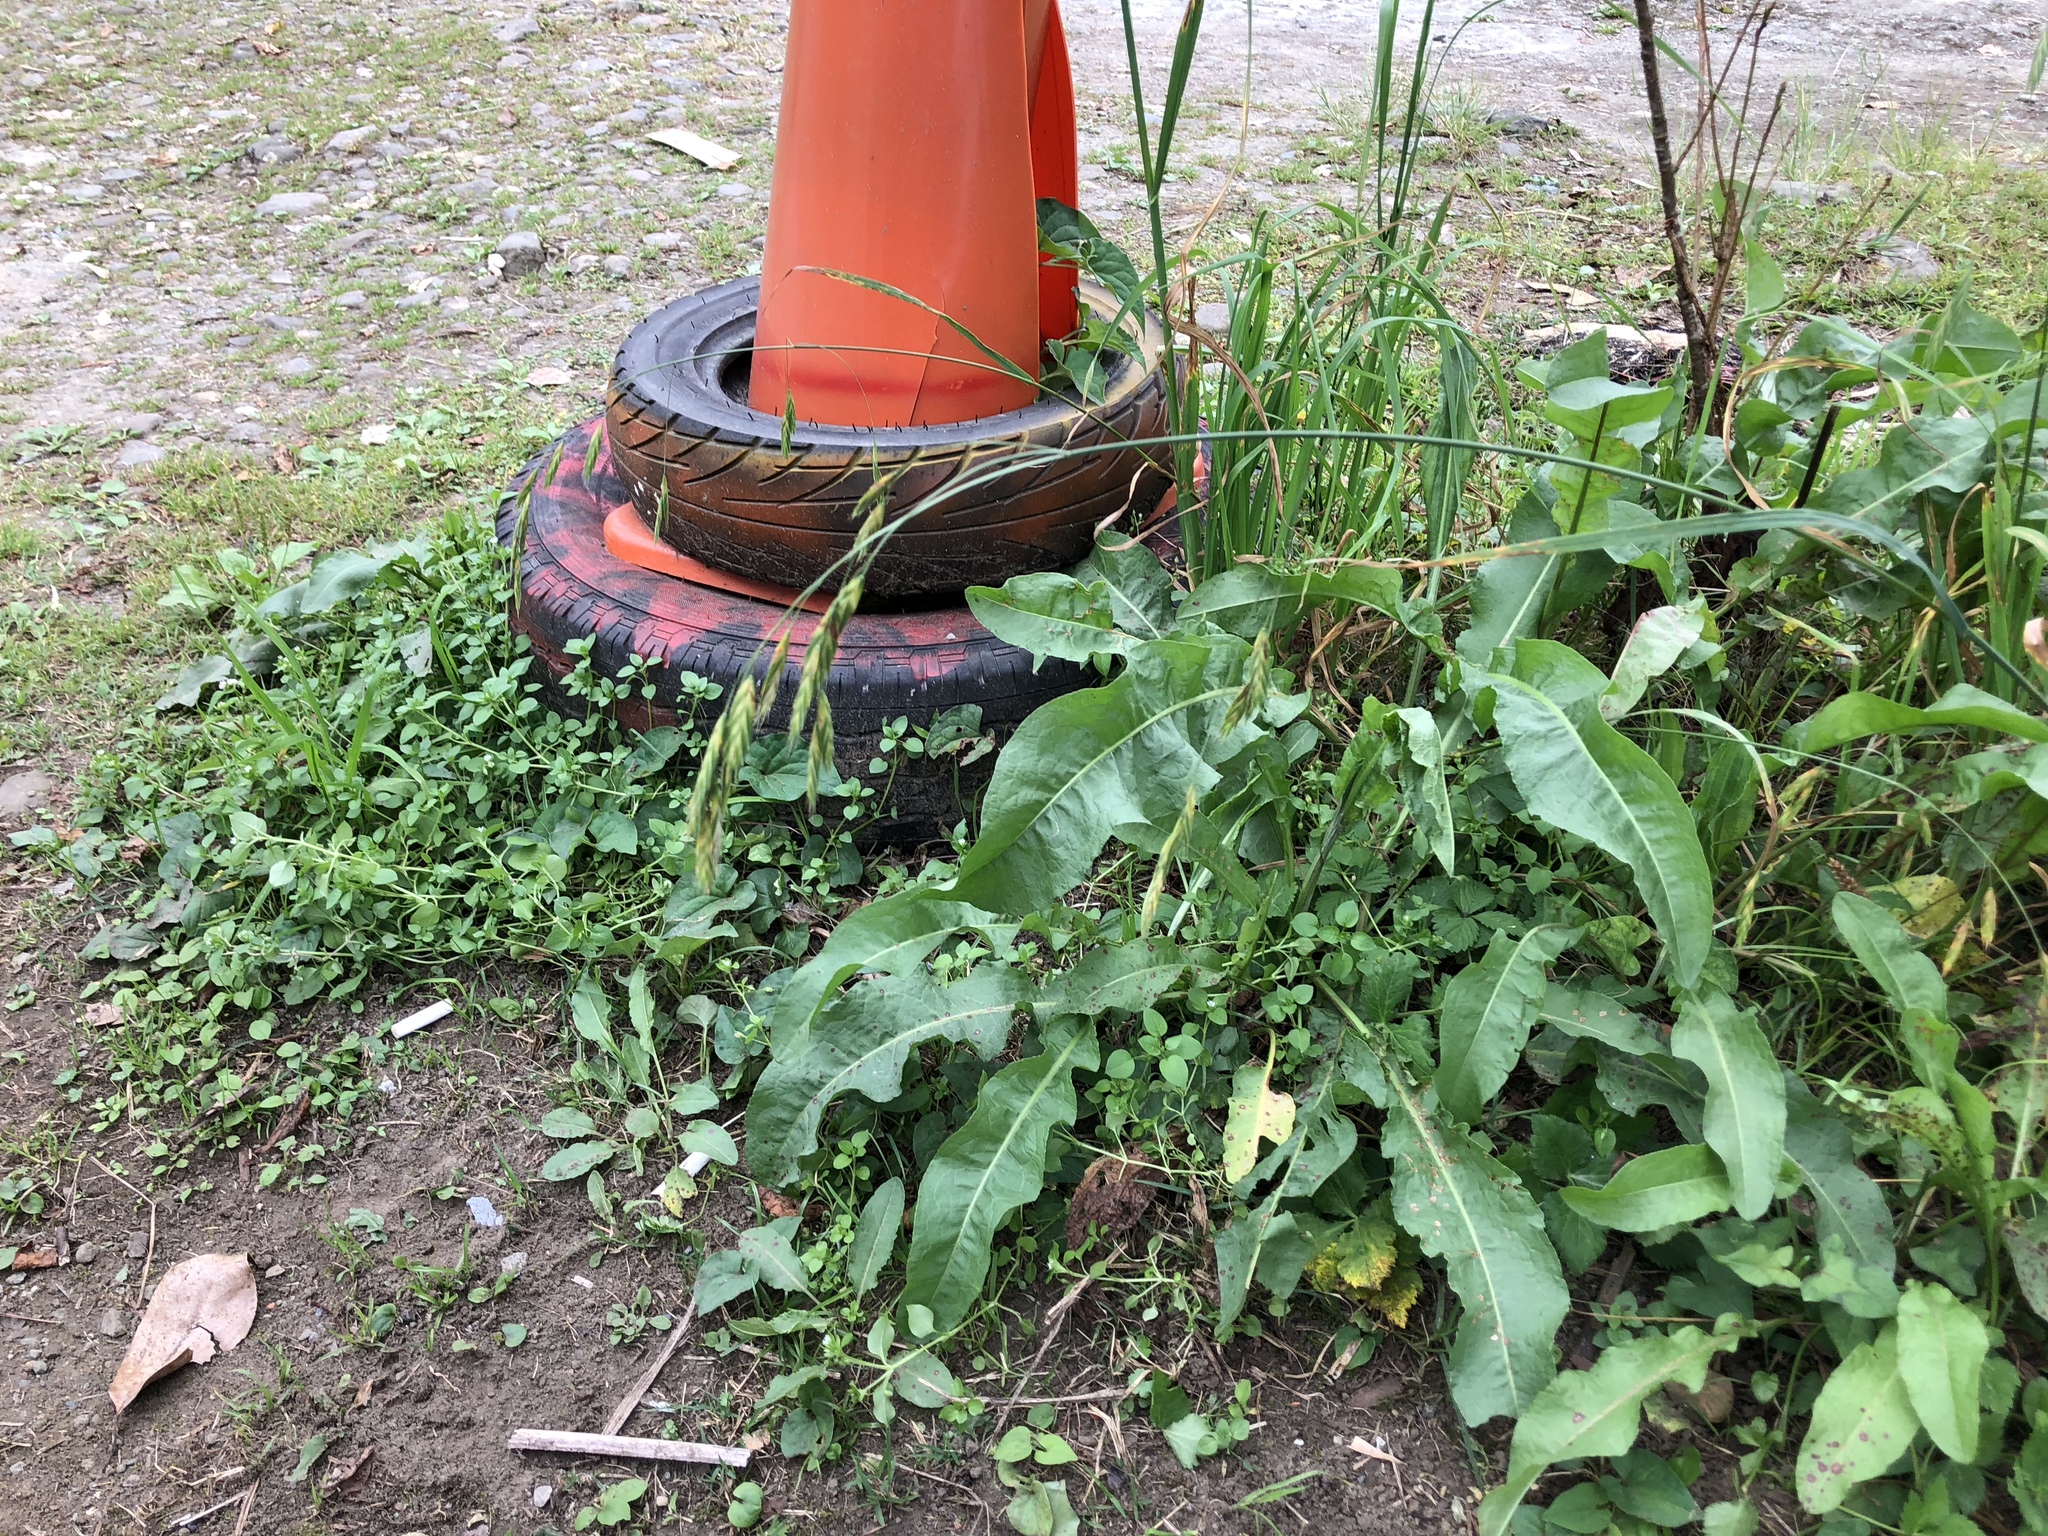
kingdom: Plantae
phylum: Tracheophyta
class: Liliopsida
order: Poales
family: Poaceae
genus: Bromus
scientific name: Bromus catharticus
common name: Rescuegrass
